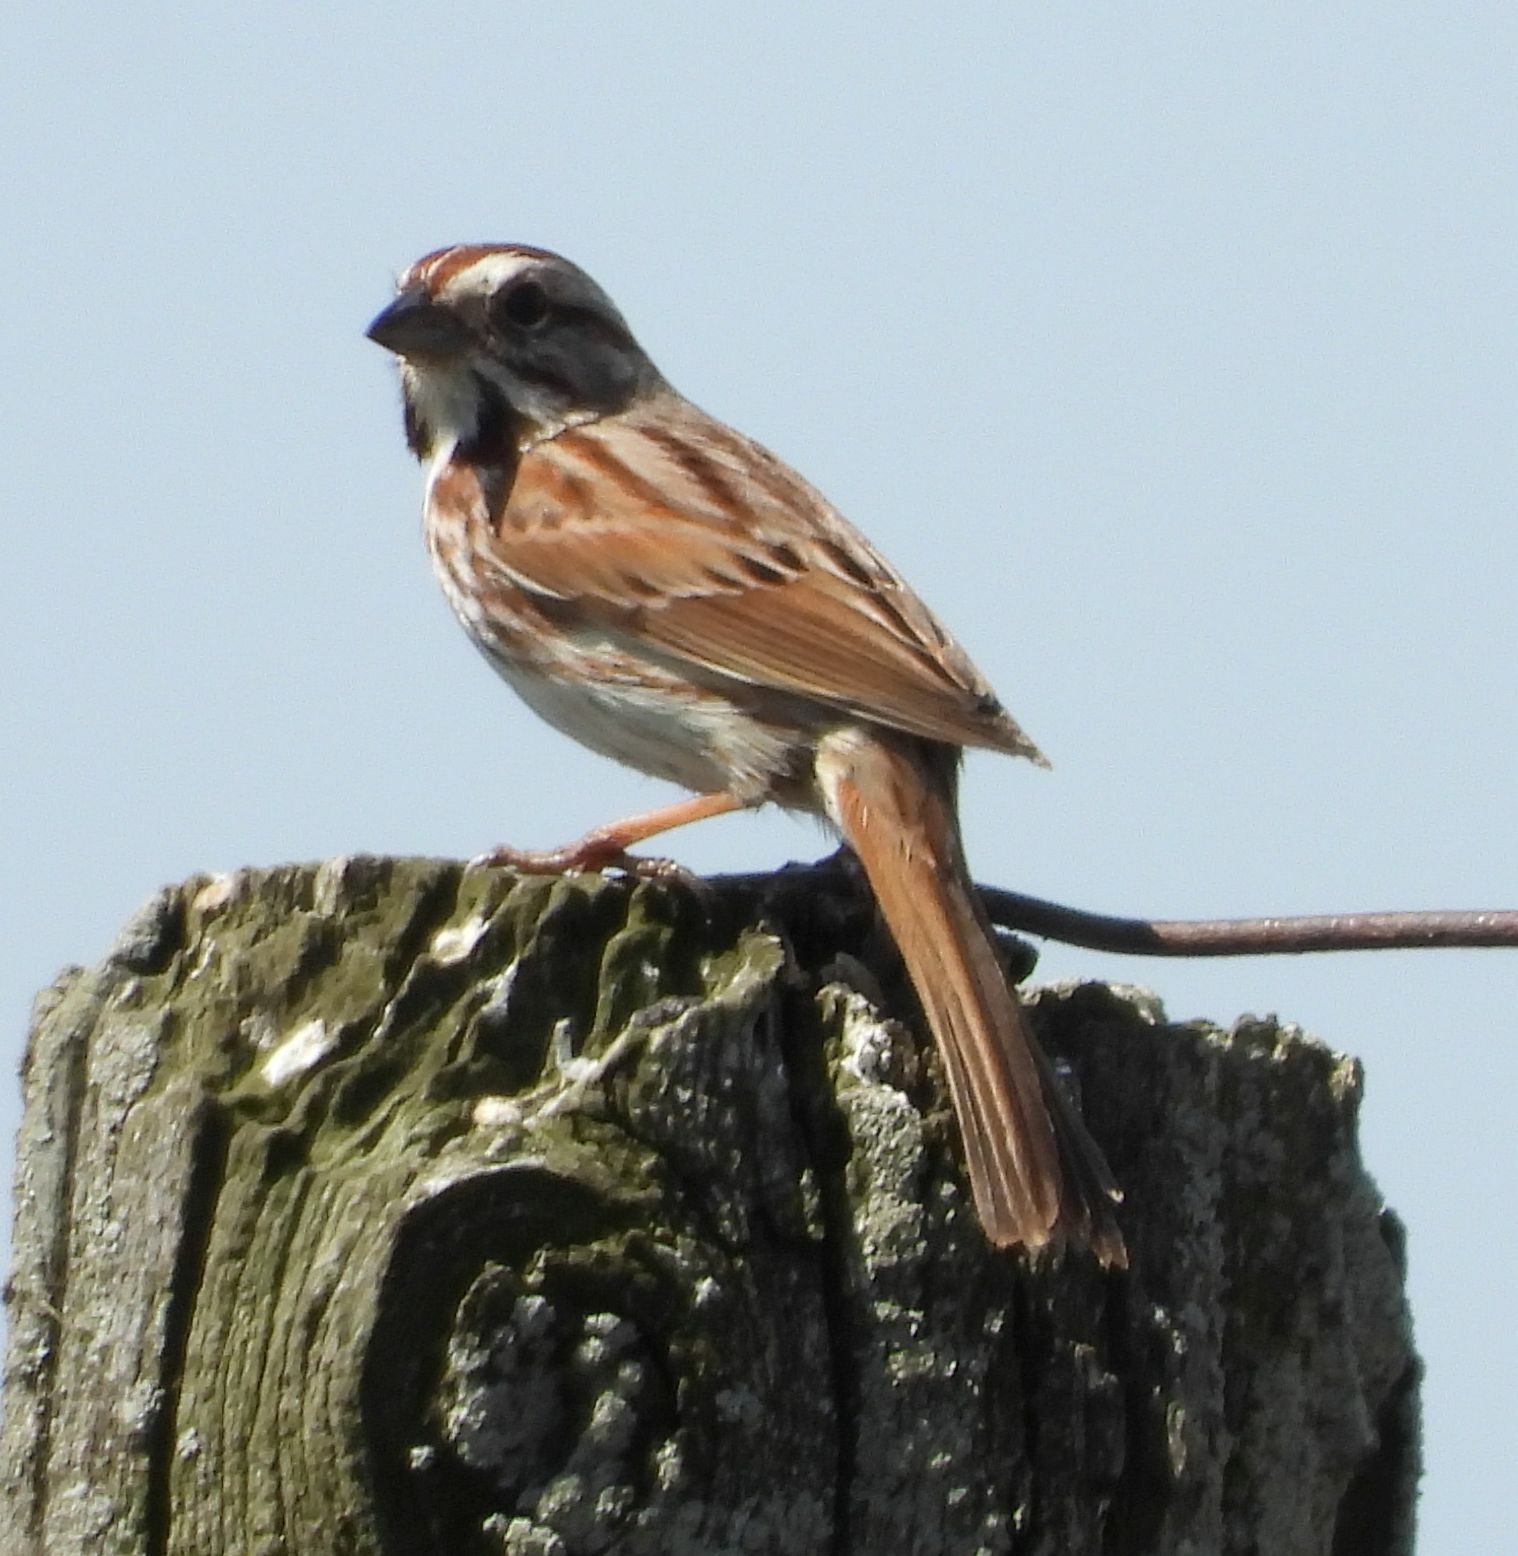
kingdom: Animalia
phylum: Chordata
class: Aves
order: Passeriformes
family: Passerellidae
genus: Melospiza
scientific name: Melospiza melodia
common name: Song sparrow
